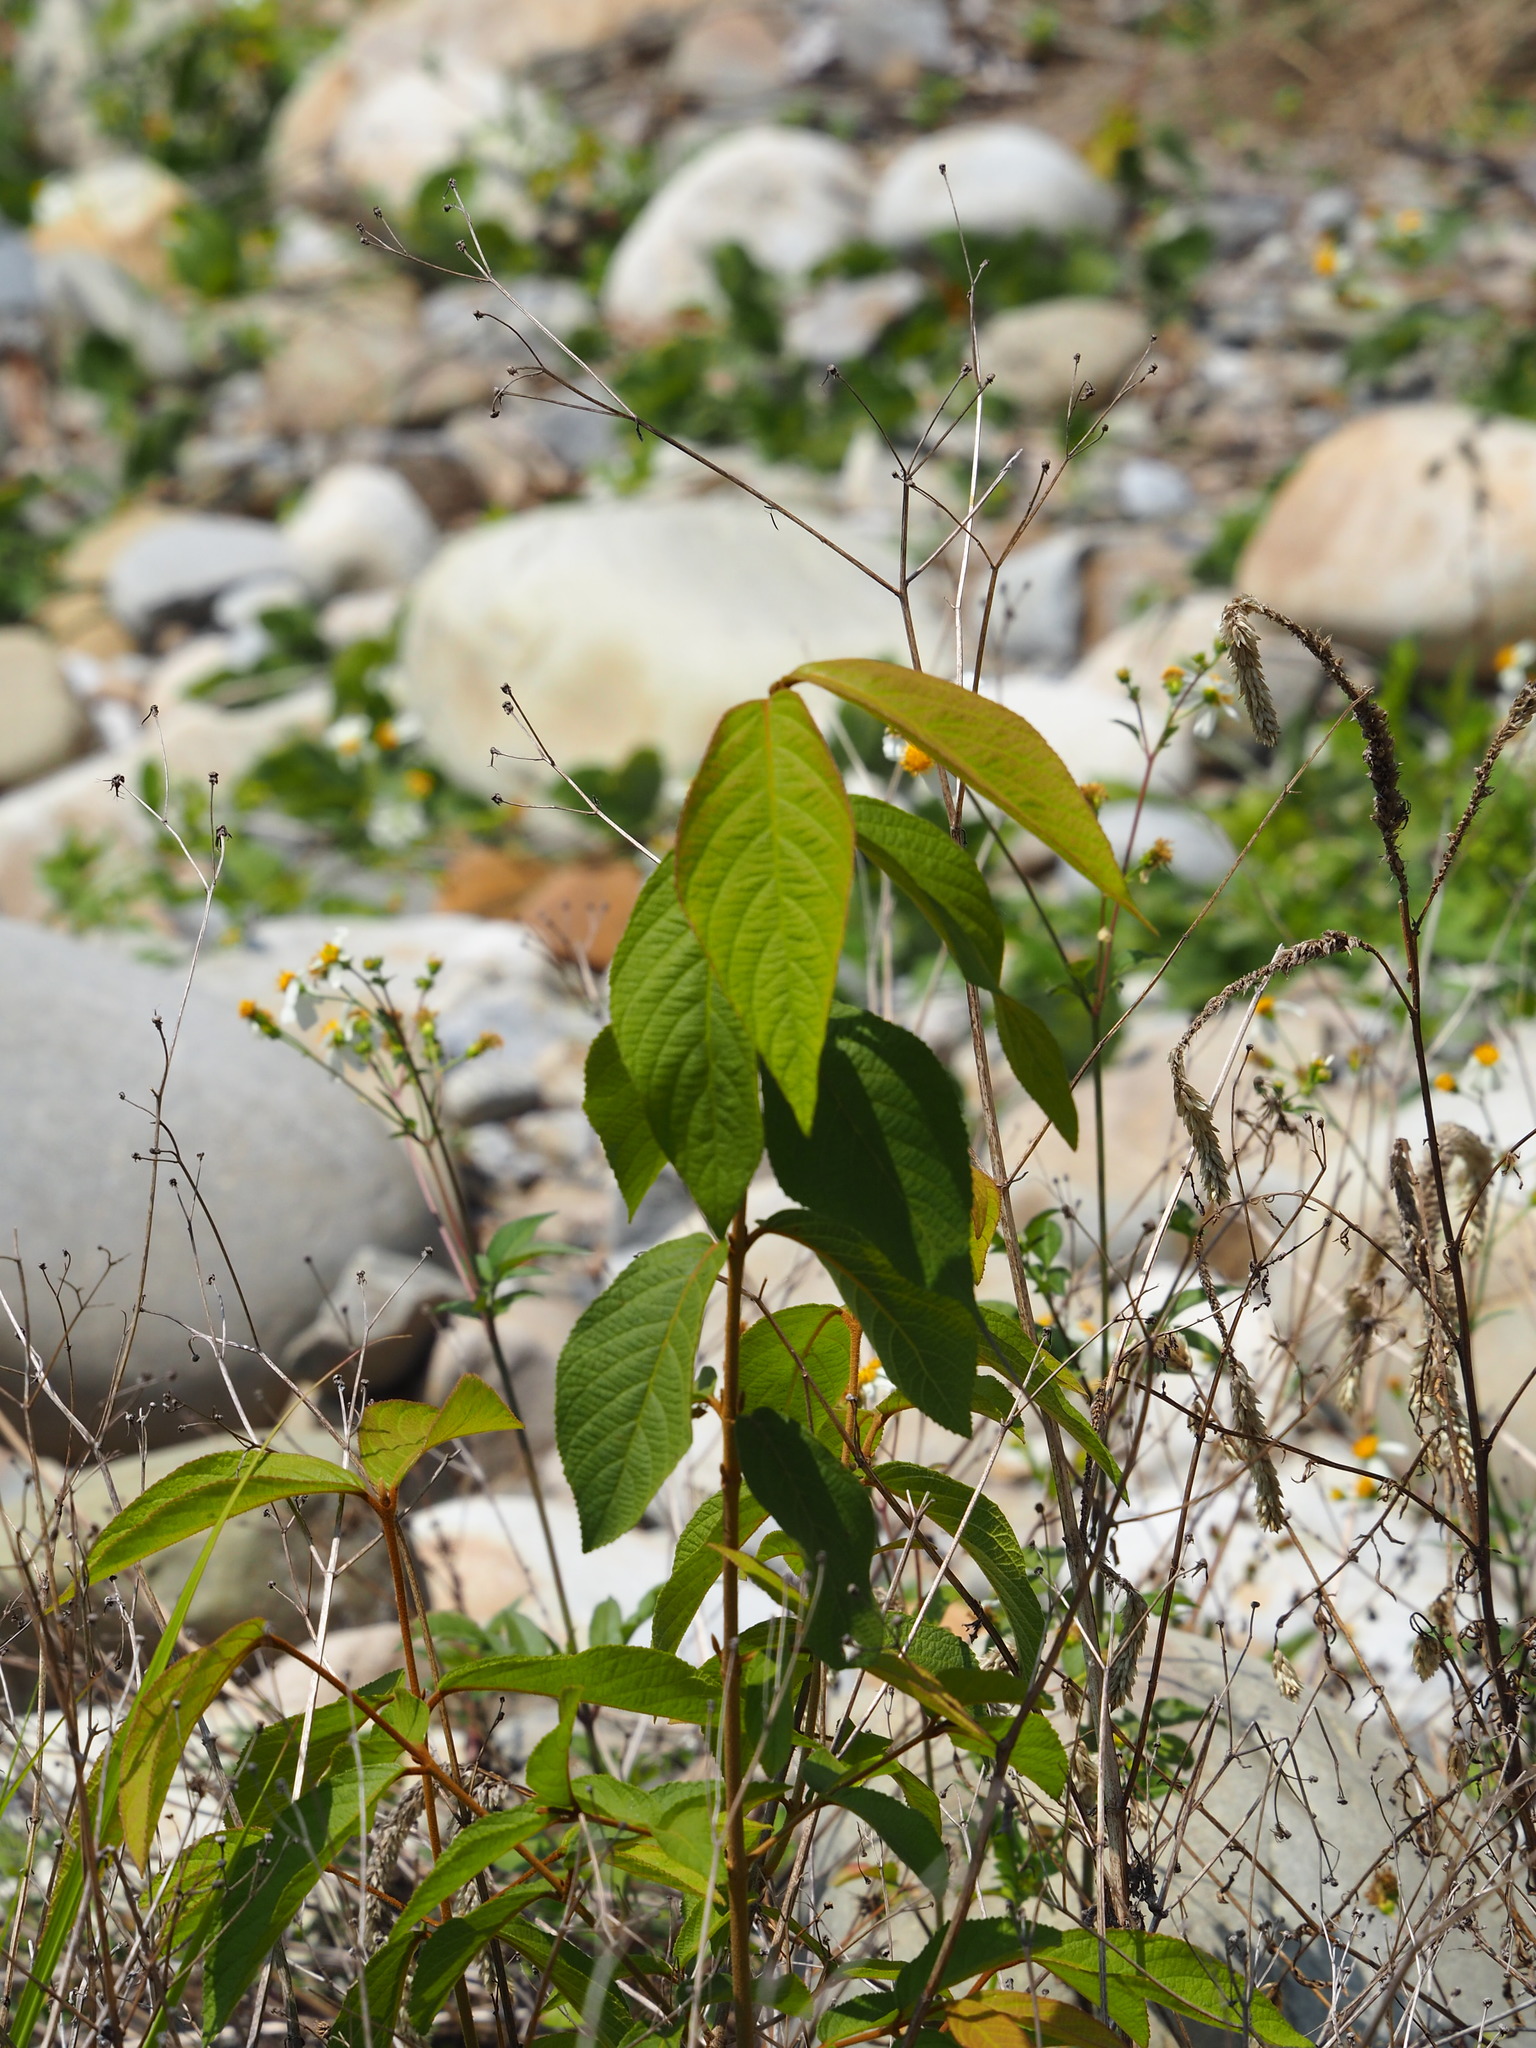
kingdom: Plantae
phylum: Tracheophyta
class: Magnoliopsida
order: Lamiales
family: Lamiaceae
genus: Callicarpa
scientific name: Callicarpa pedunculata
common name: Velvetleaf
